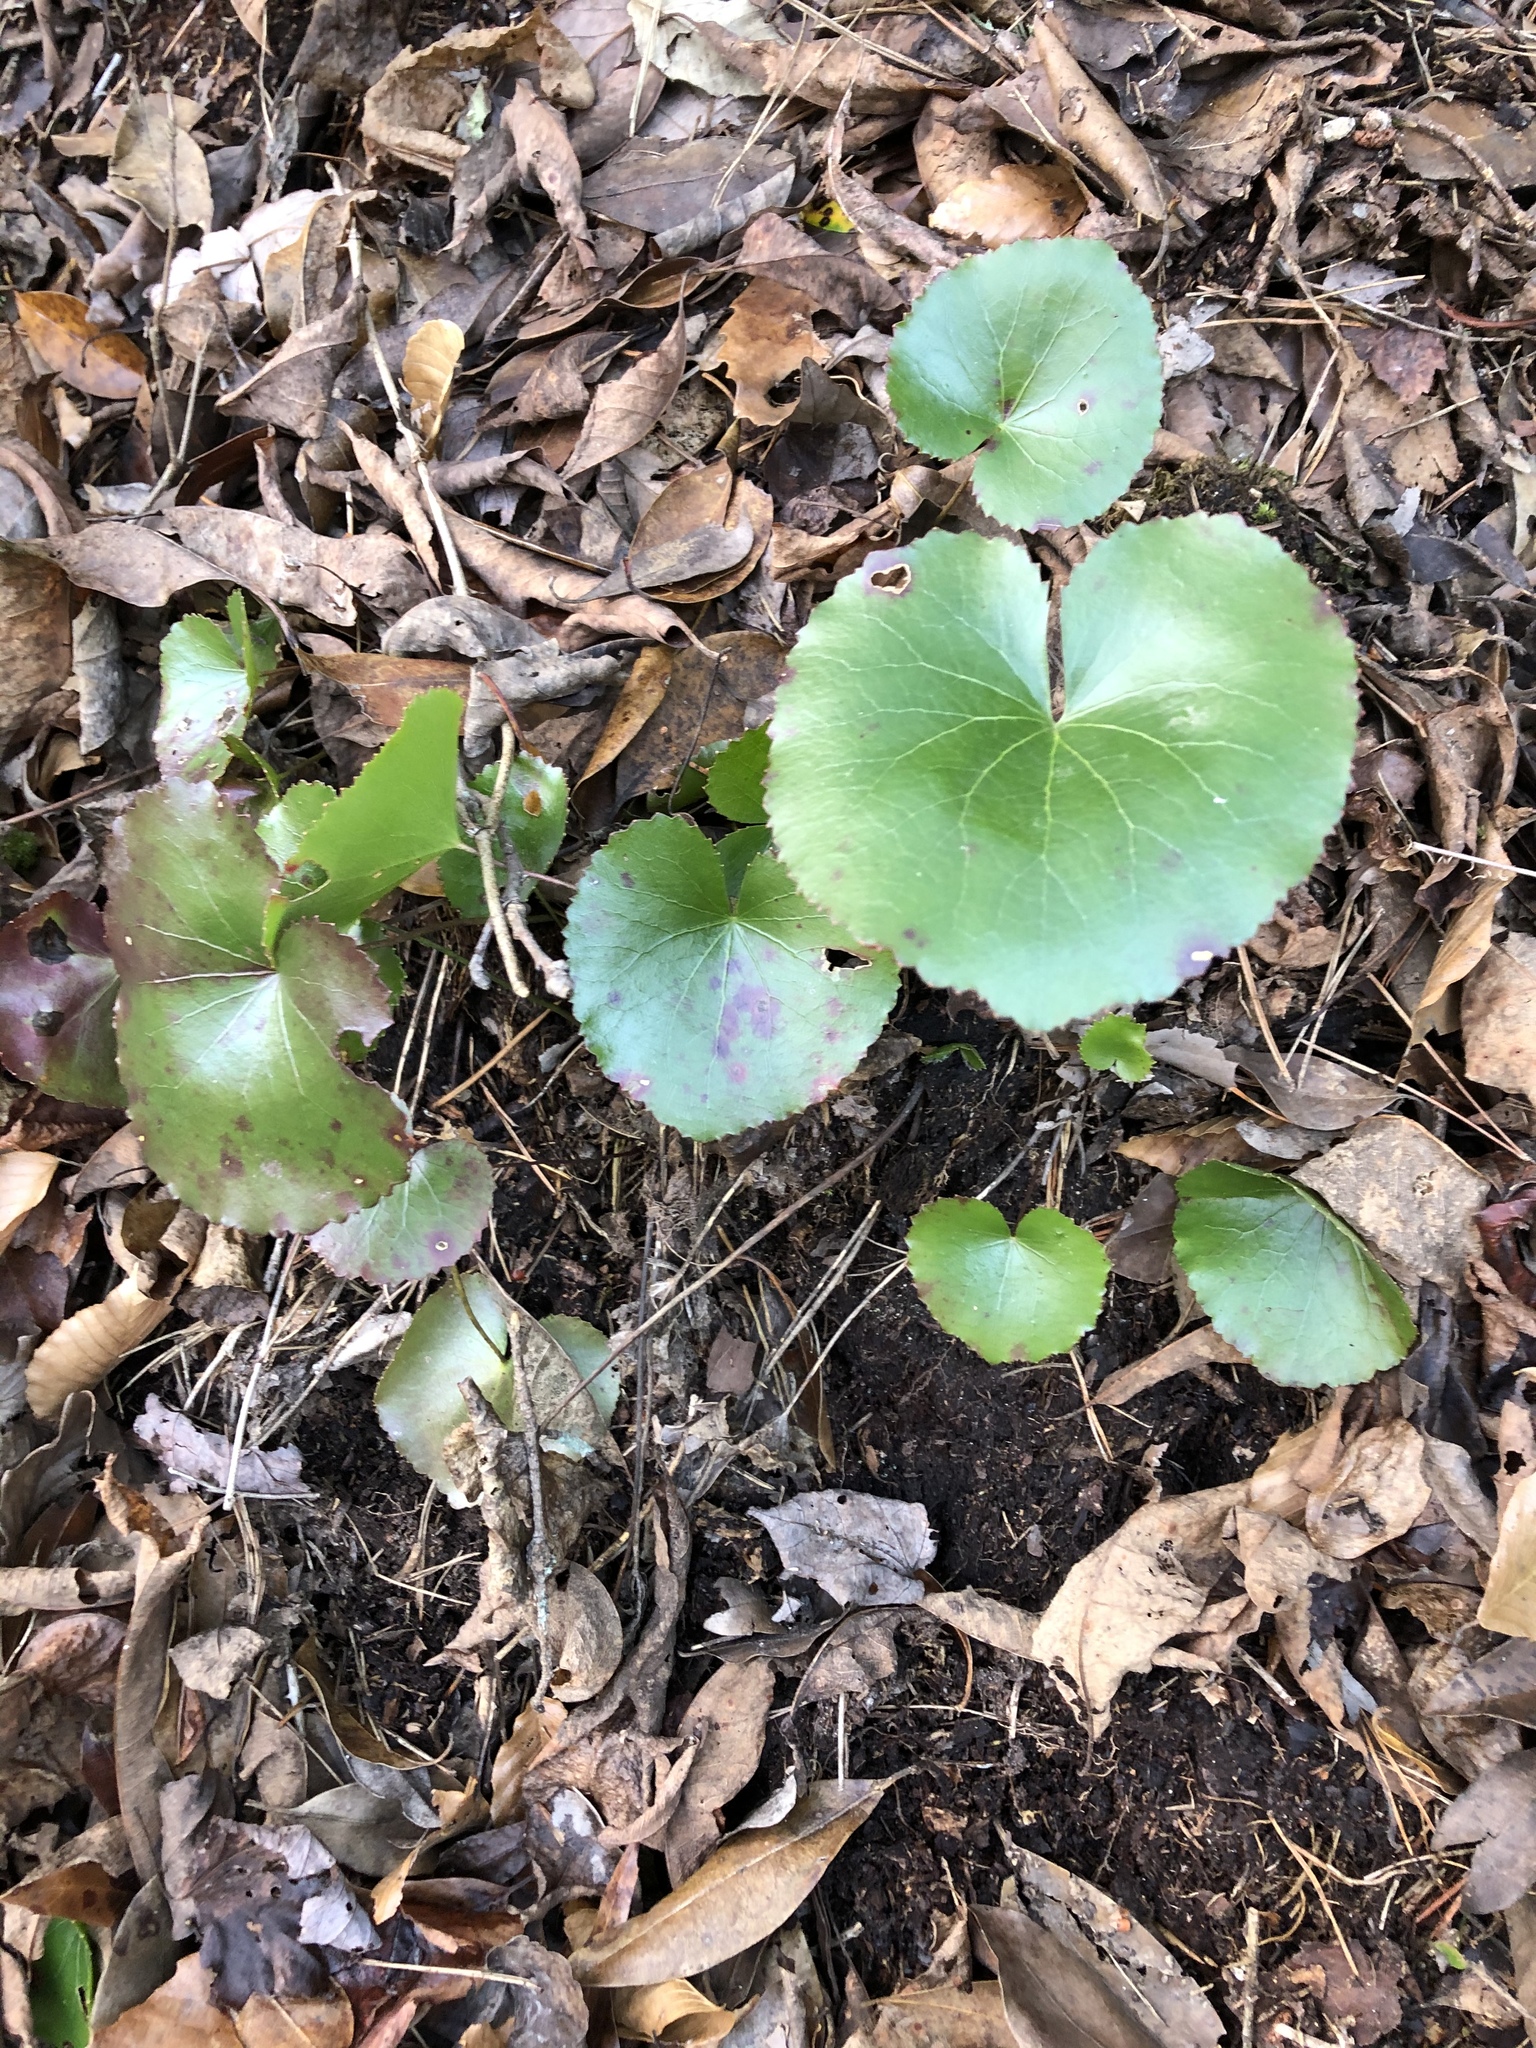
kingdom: Plantae
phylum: Tracheophyta
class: Magnoliopsida
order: Ericales
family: Diapensiaceae
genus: Galax
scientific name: Galax urceolata
